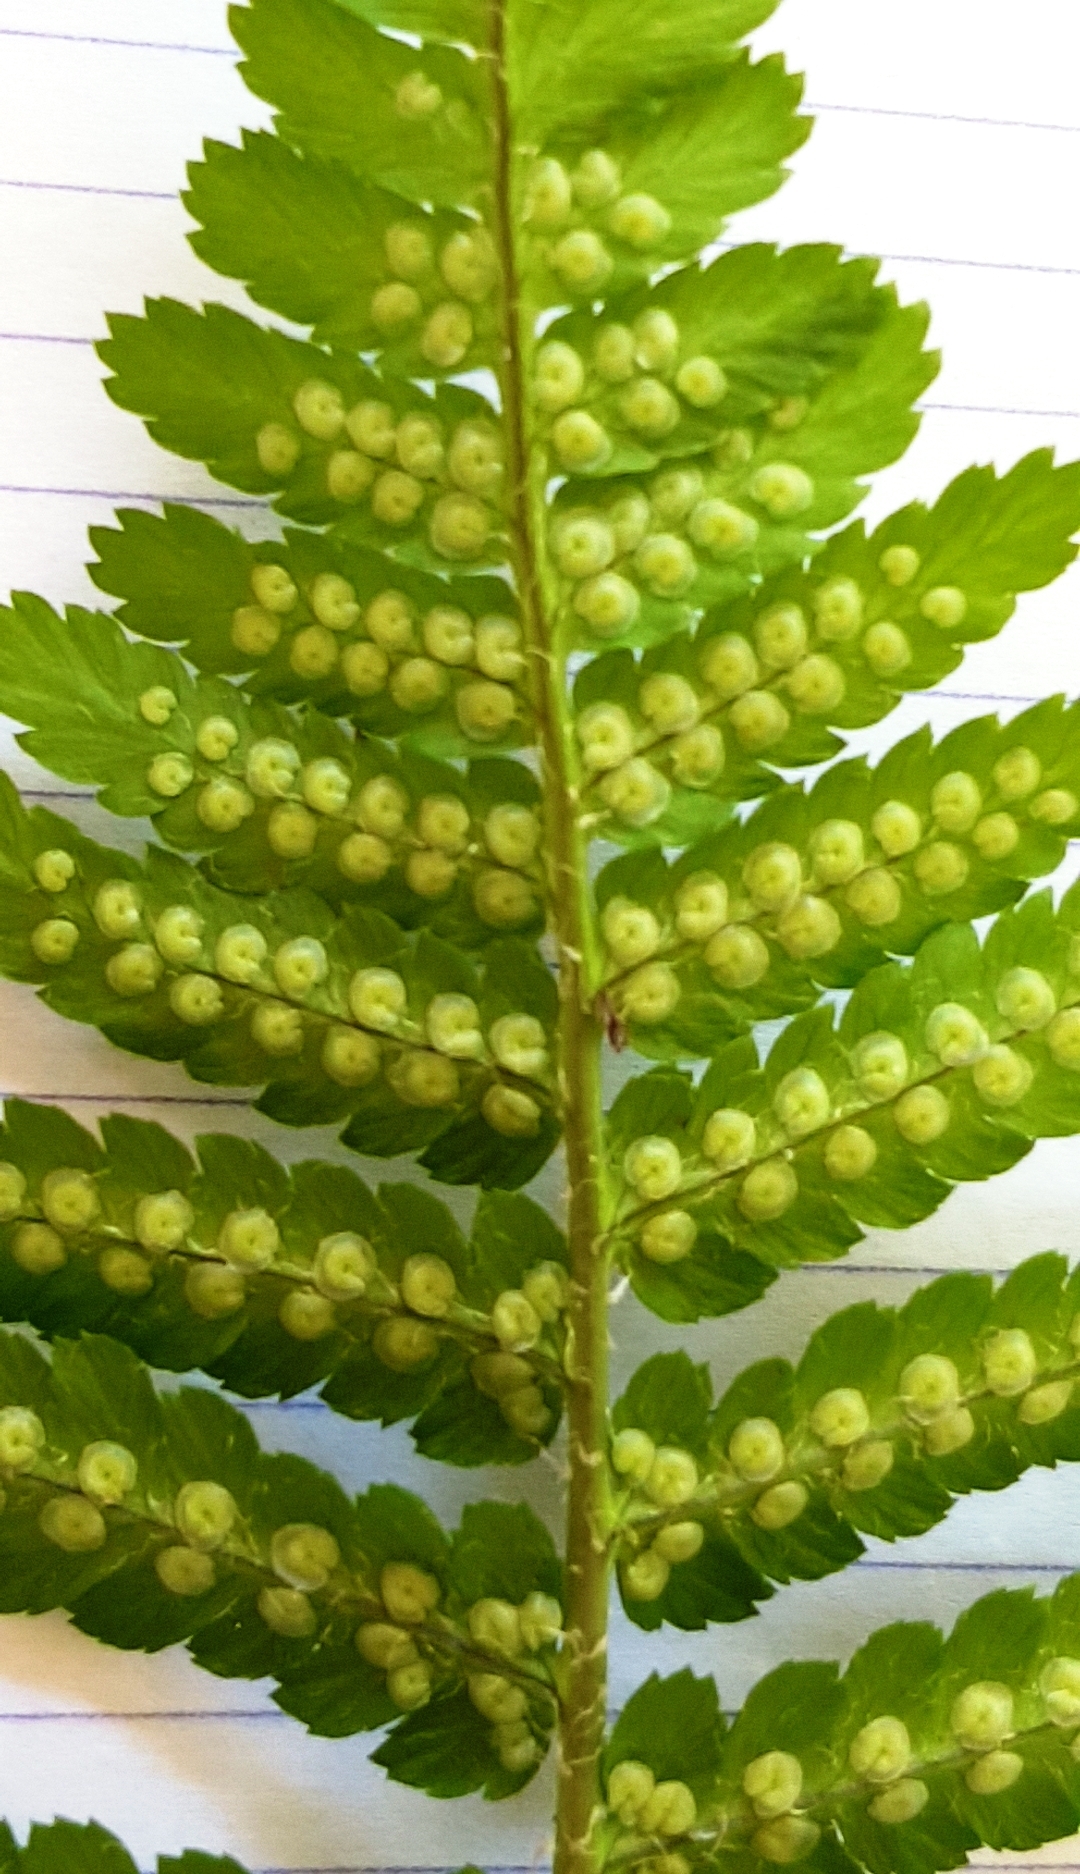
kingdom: Plantae
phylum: Tracheophyta
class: Polypodiopsida
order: Polypodiales
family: Dryopteridaceae
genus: Dryopteris
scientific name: Dryopteris filix-mas
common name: Male fern
